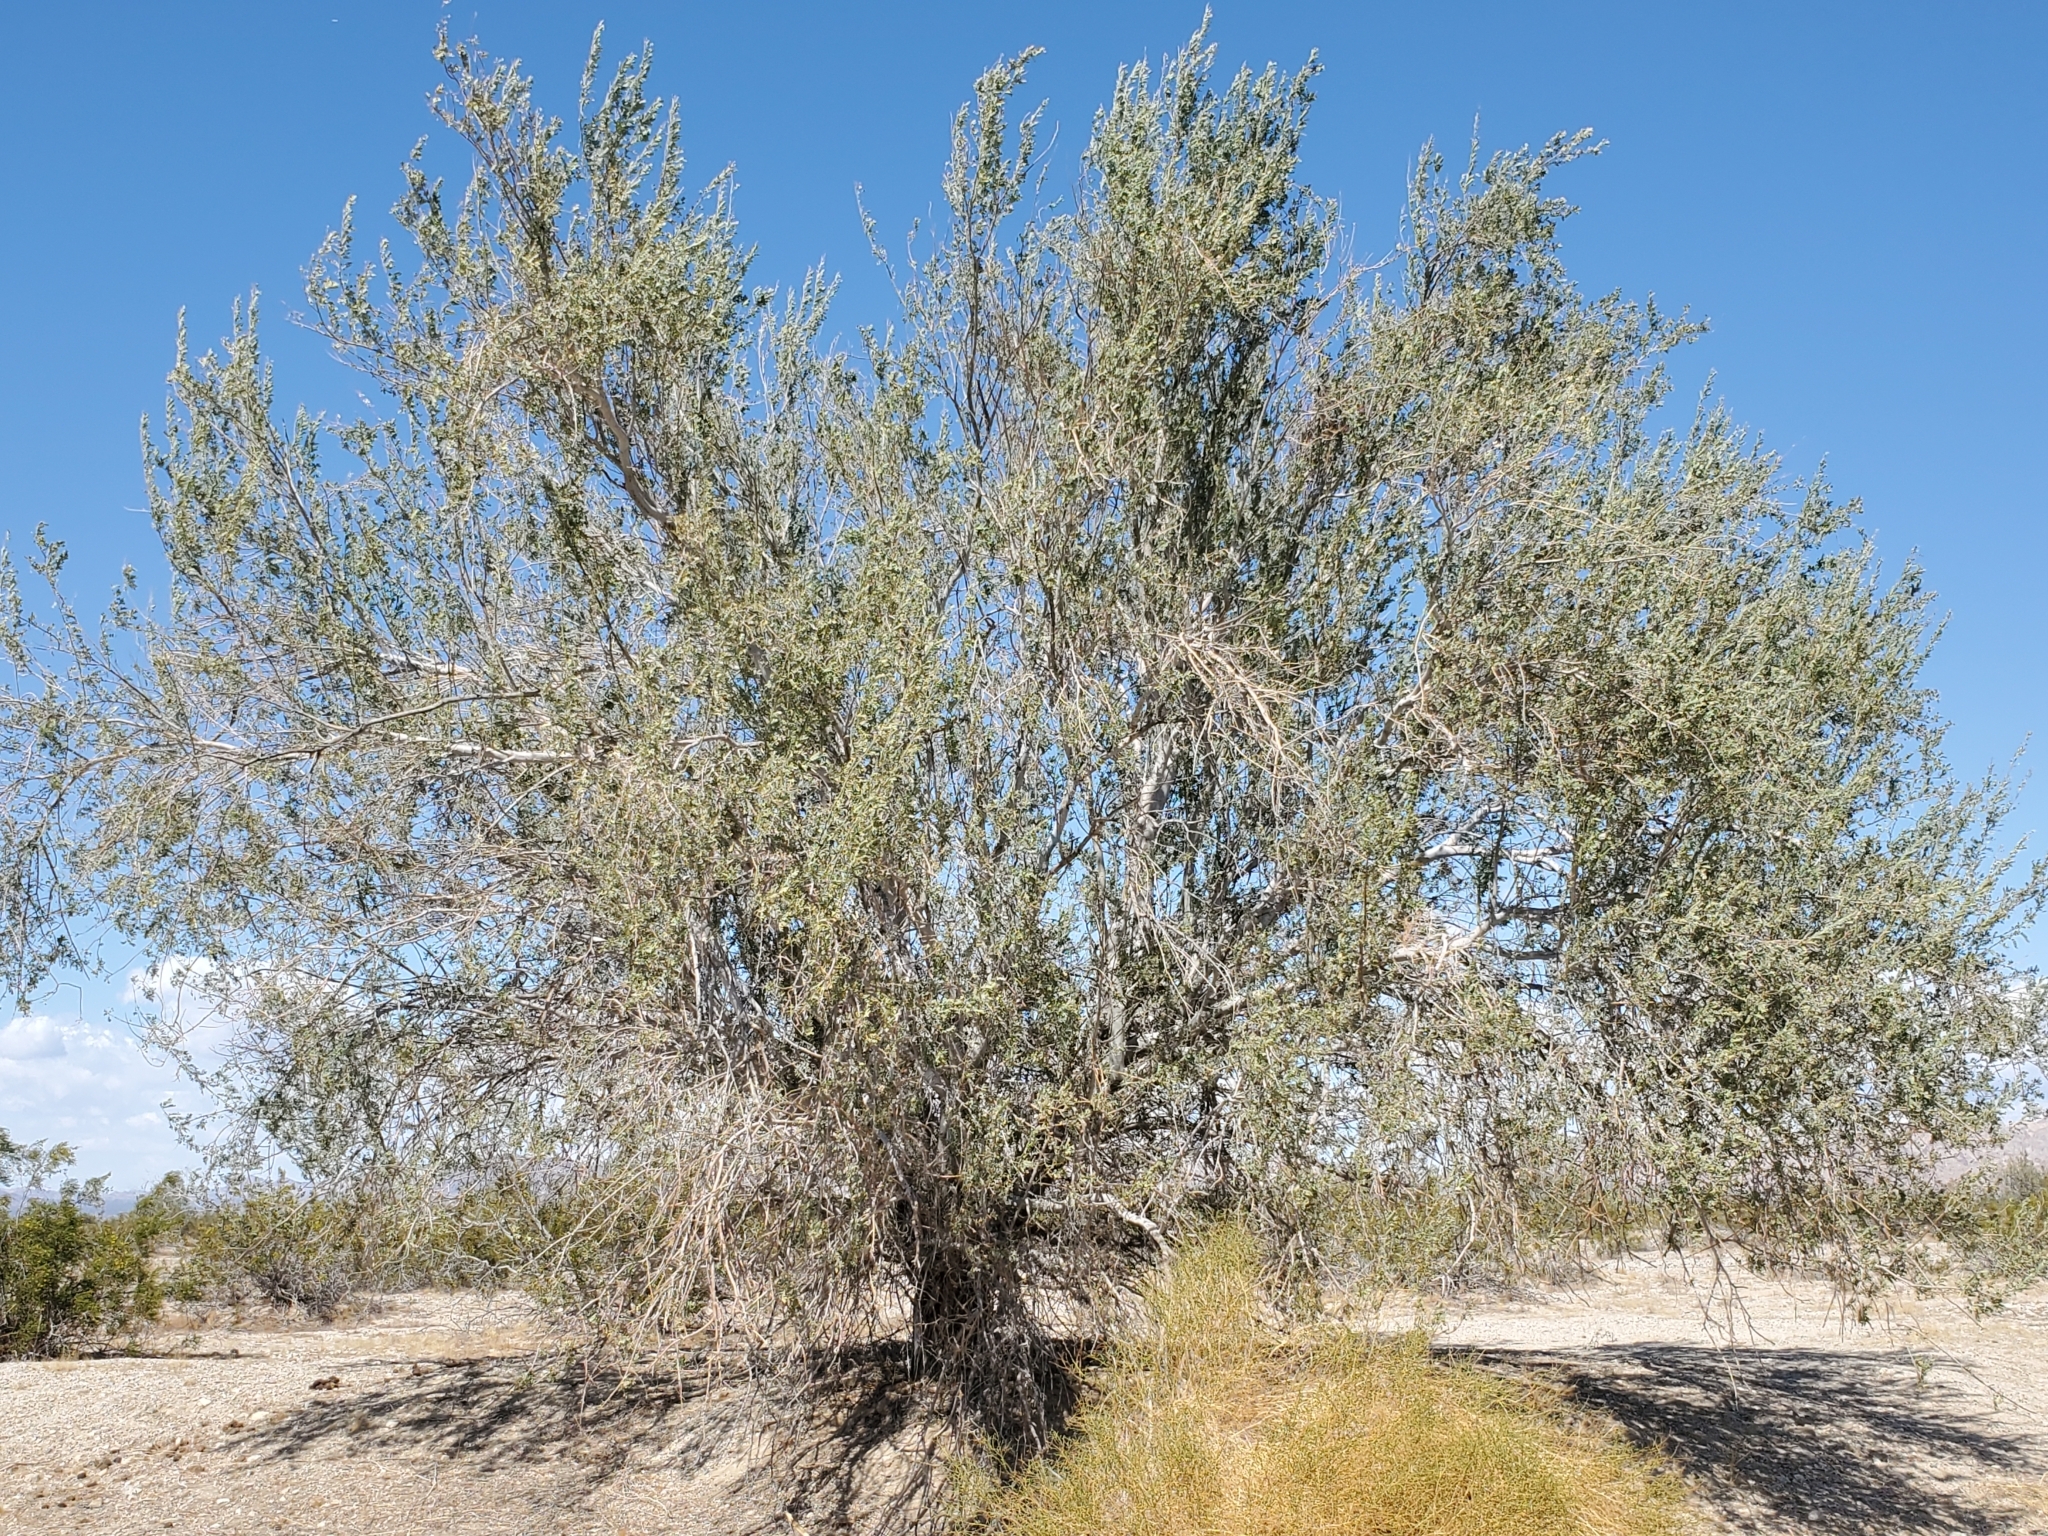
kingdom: Plantae
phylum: Tracheophyta
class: Magnoliopsida
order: Fabales
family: Fabaceae
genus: Olneya
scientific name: Olneya tesota
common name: Desert ironwood
